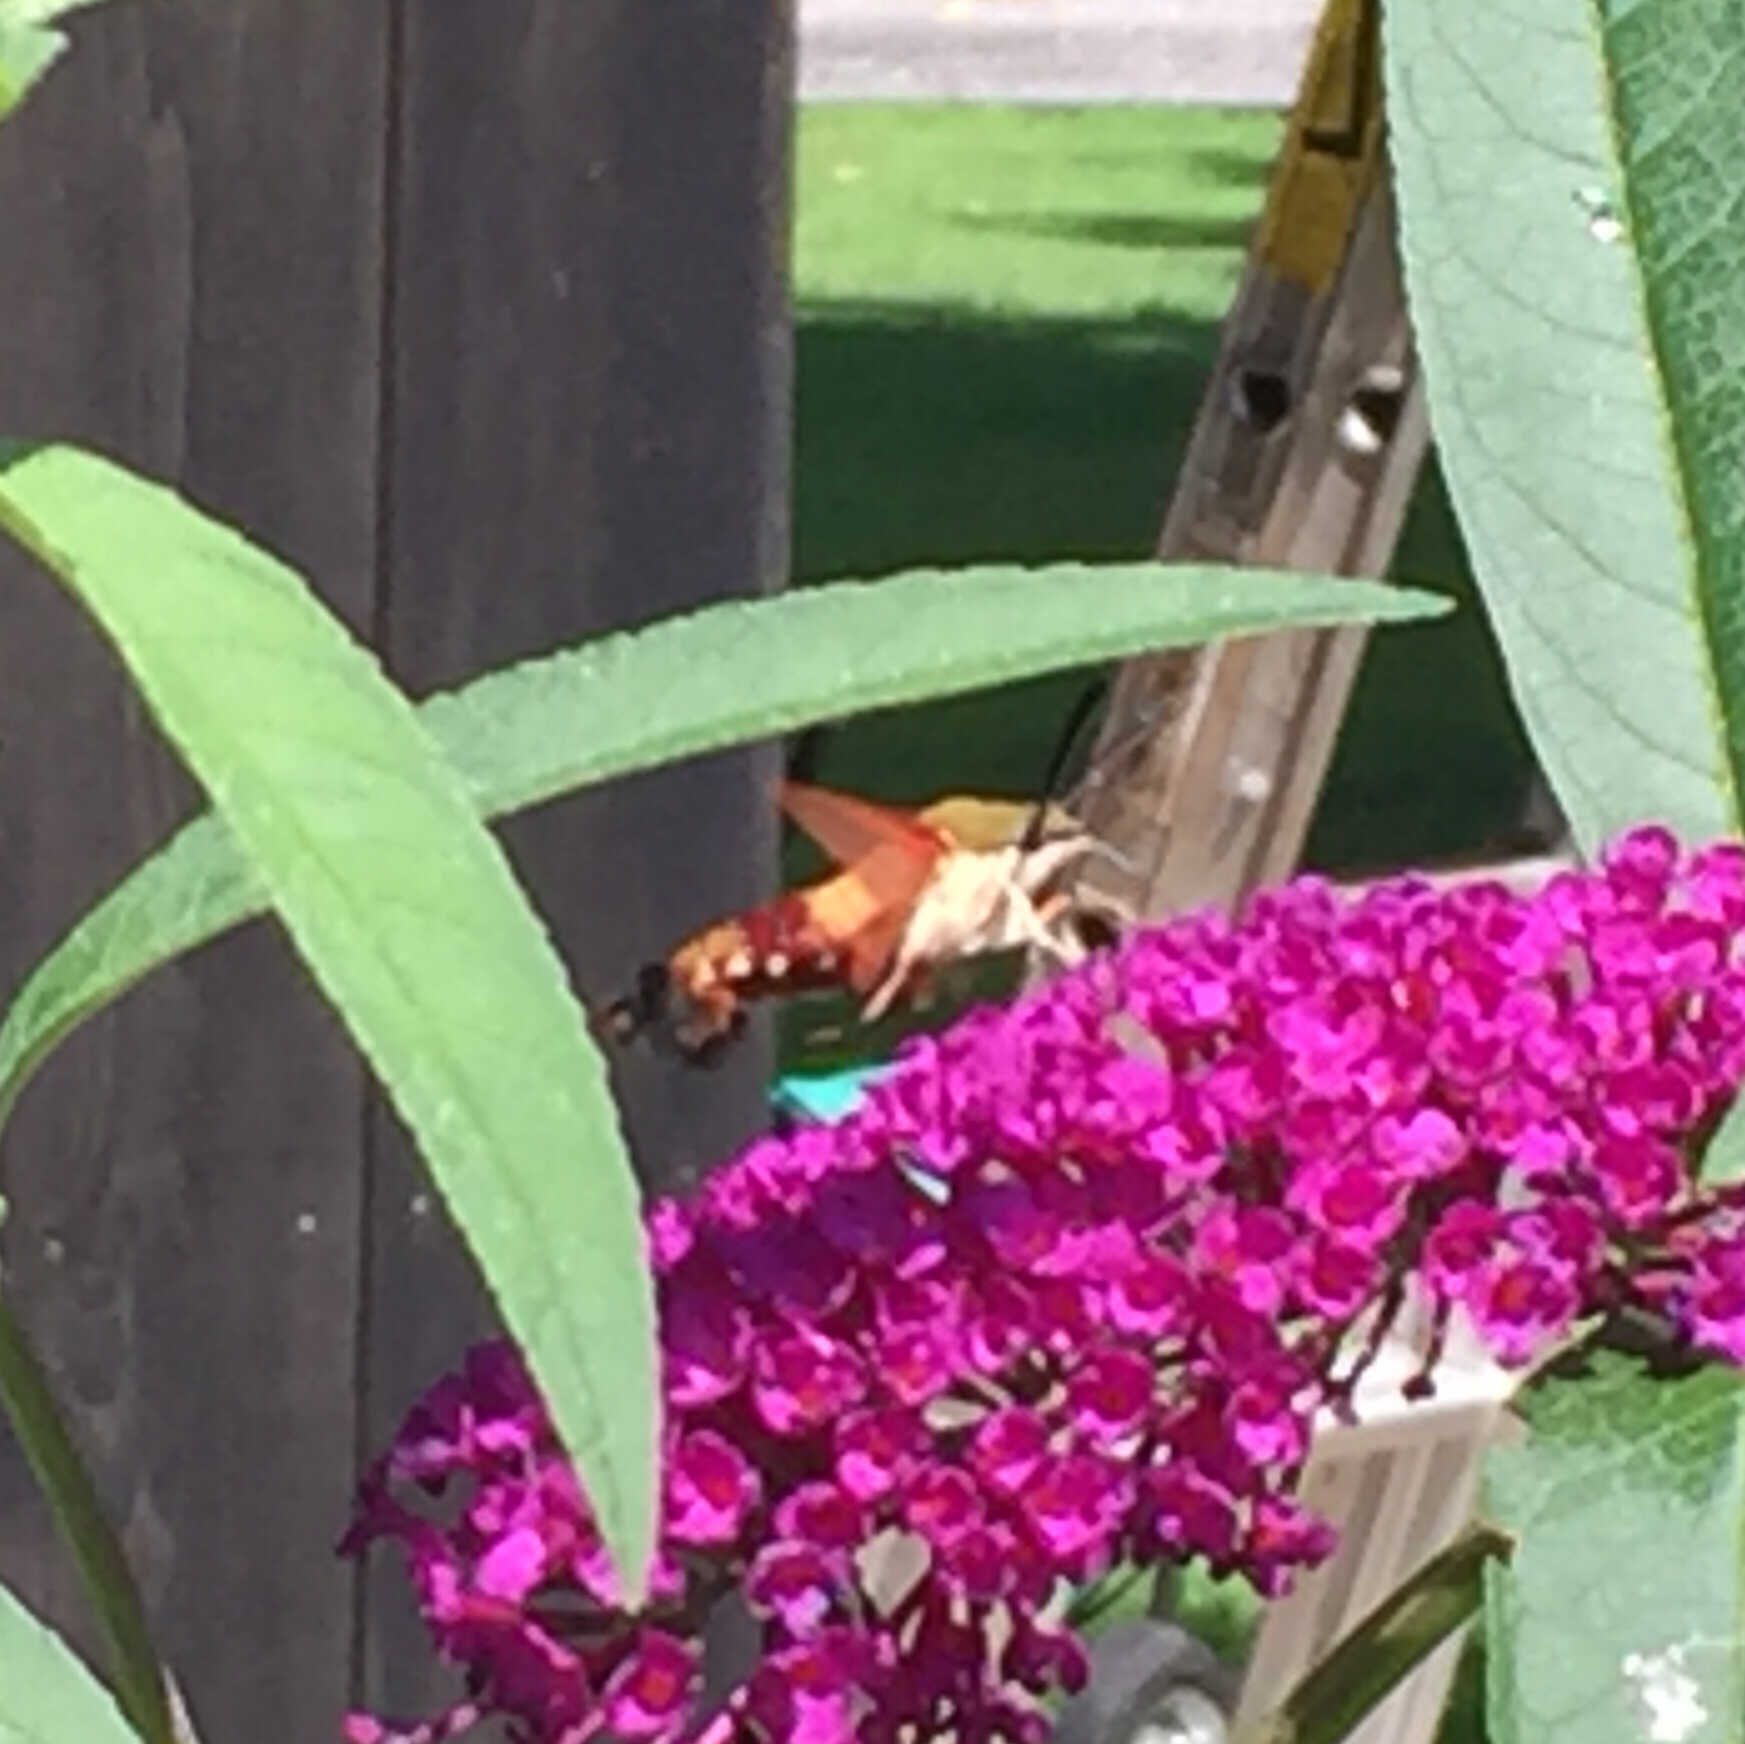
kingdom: Animalia
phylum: Arthropoda
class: Insecta
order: Lepidoptera
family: Sphingidae
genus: Hemaris
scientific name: Hemaris thysbe
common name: Common clear-wing
